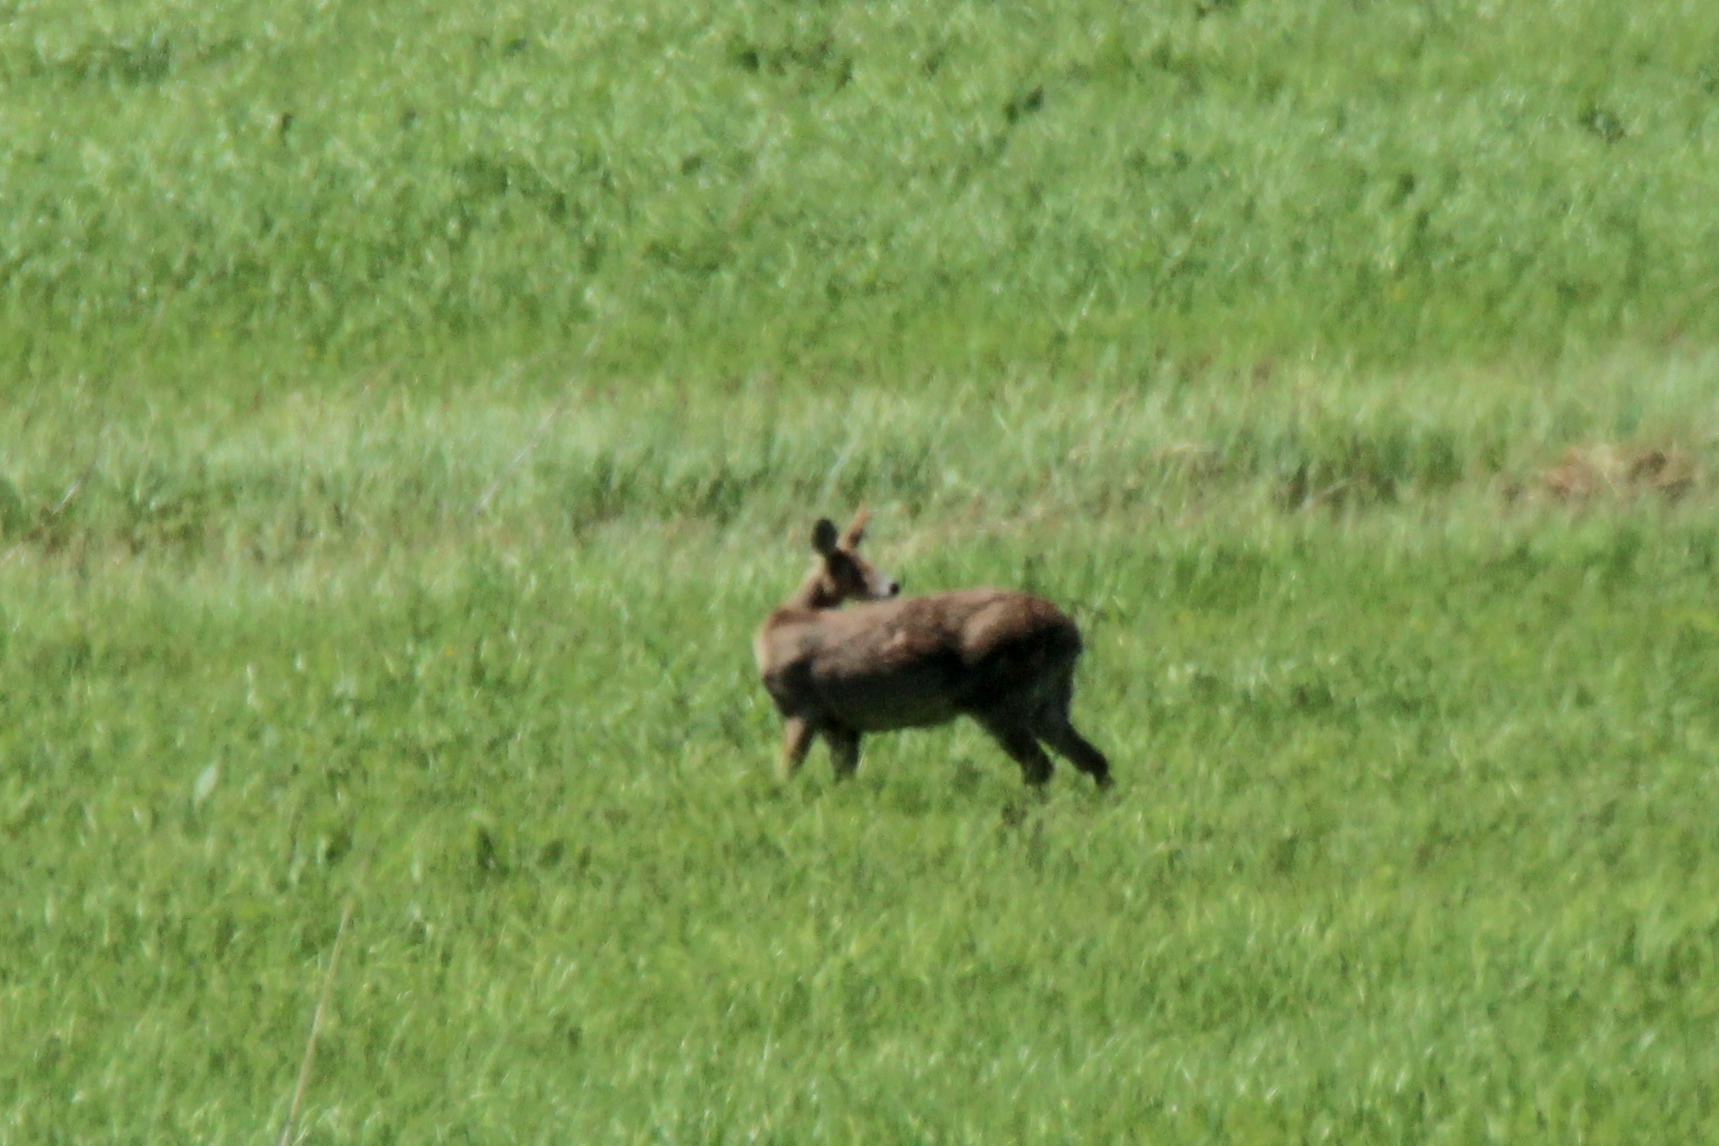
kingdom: Animalia
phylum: Chordata
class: Mammalia
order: Artiodactyla
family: Cervidae
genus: Hydropotes
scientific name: Hydropotes inermis
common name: Chinese water deer
